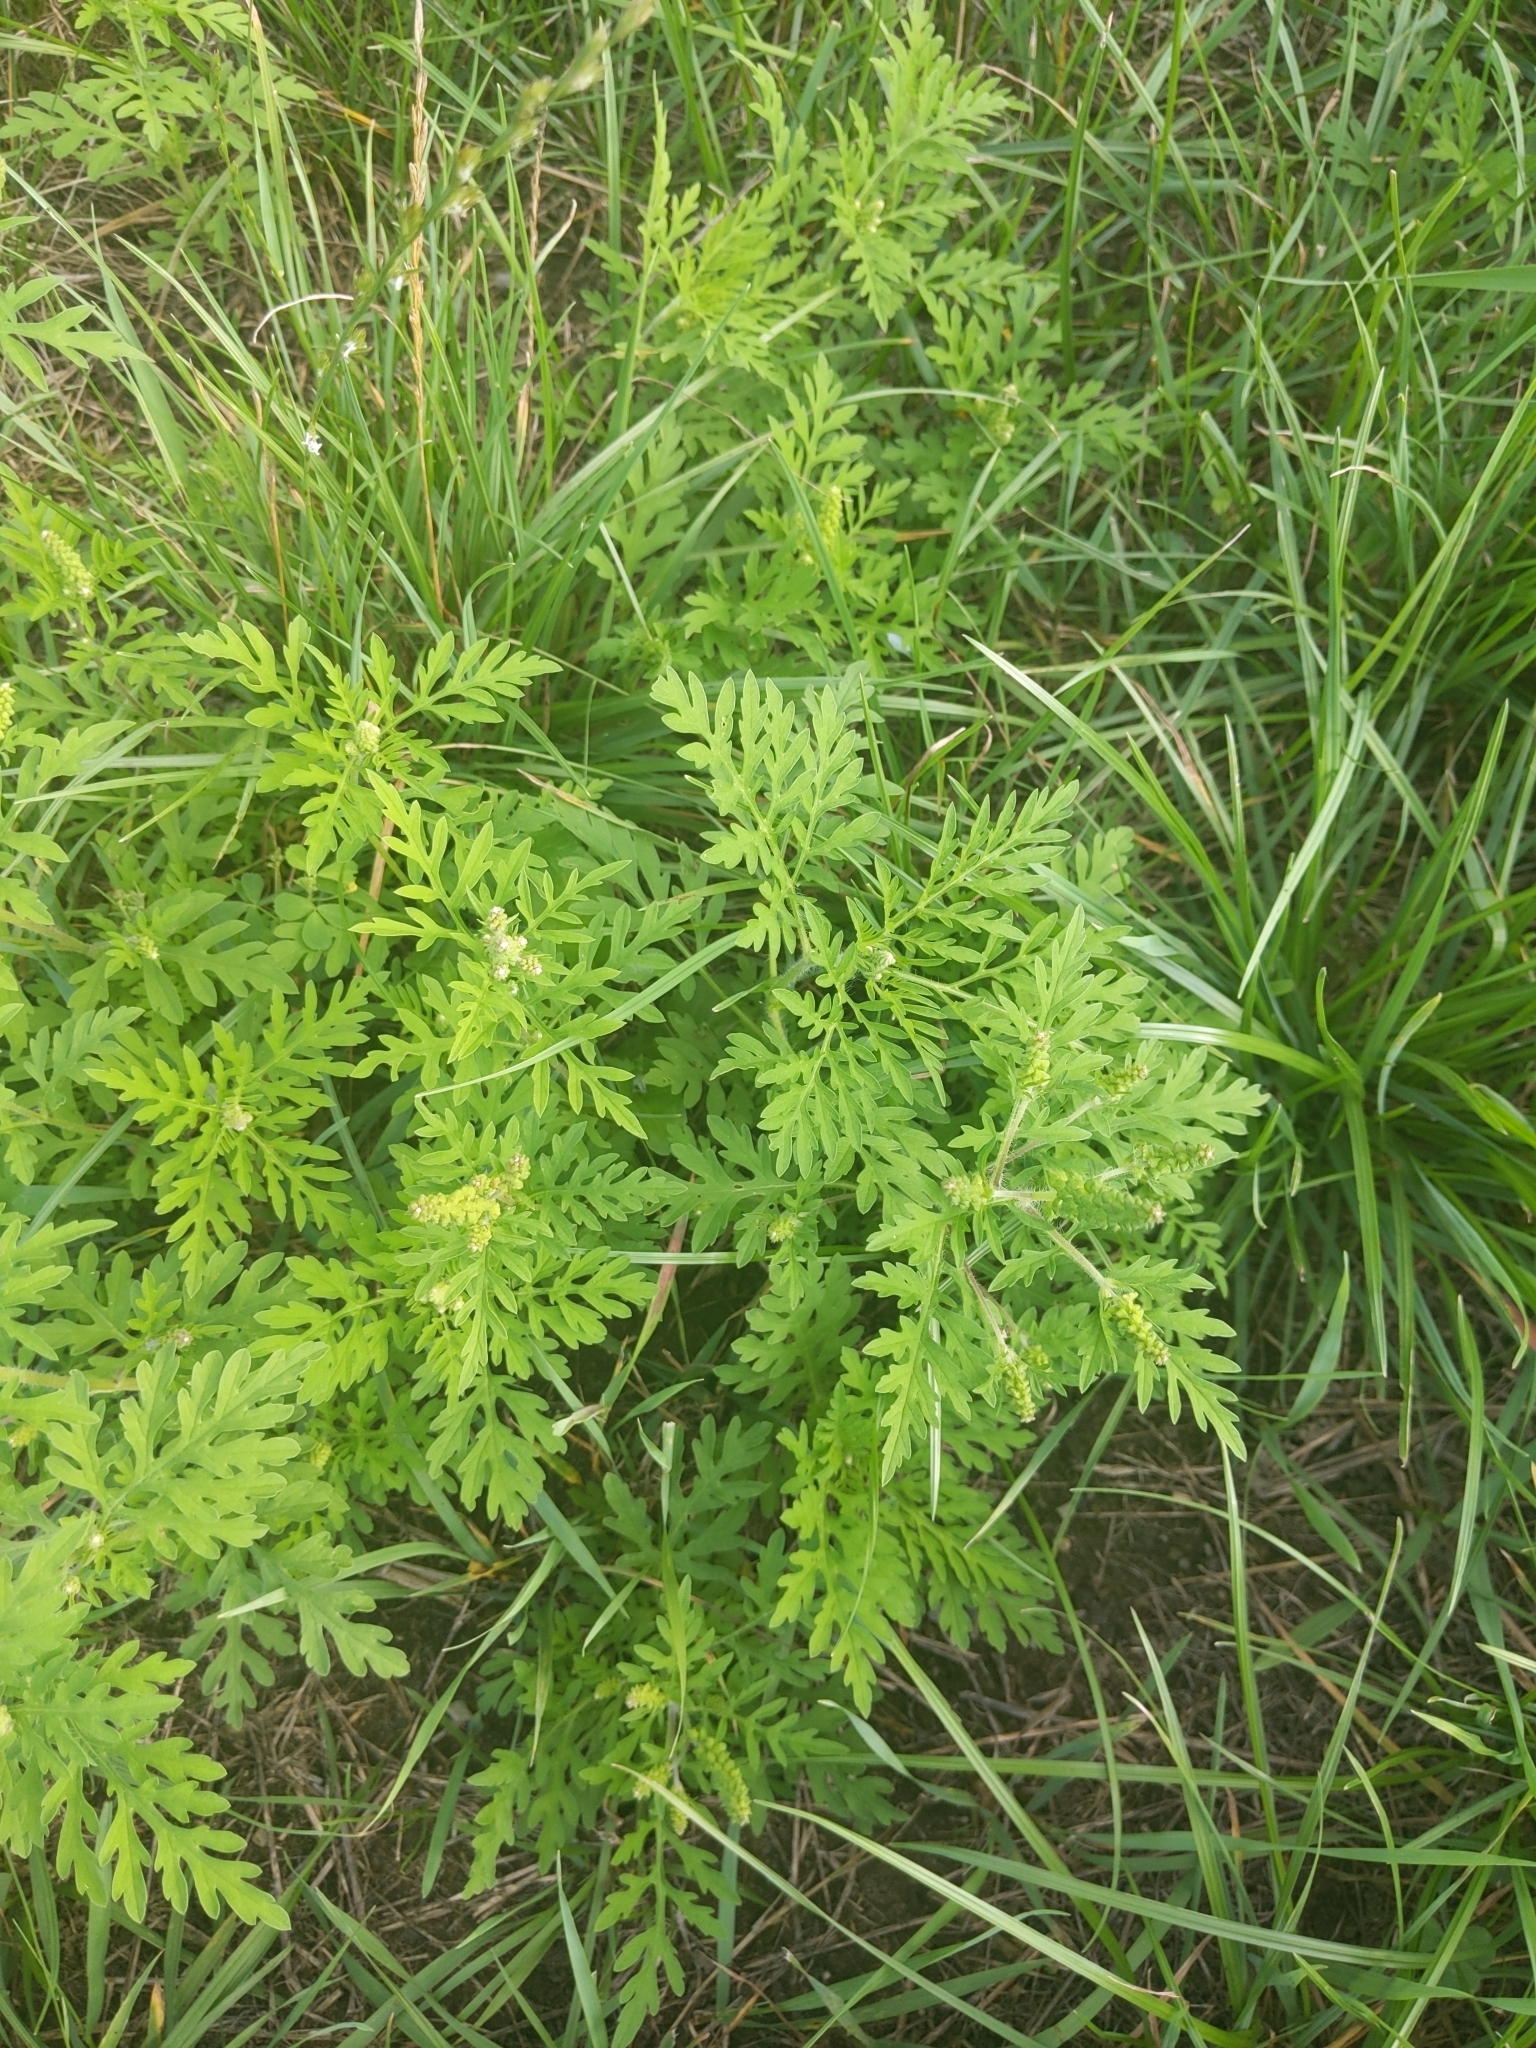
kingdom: Plantae
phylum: Tracheophyta
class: Magnoliopsida
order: Asterales
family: Asteraceae
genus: Ambrosia
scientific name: Ambrosia artemisiifolia
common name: Annual ragweed
